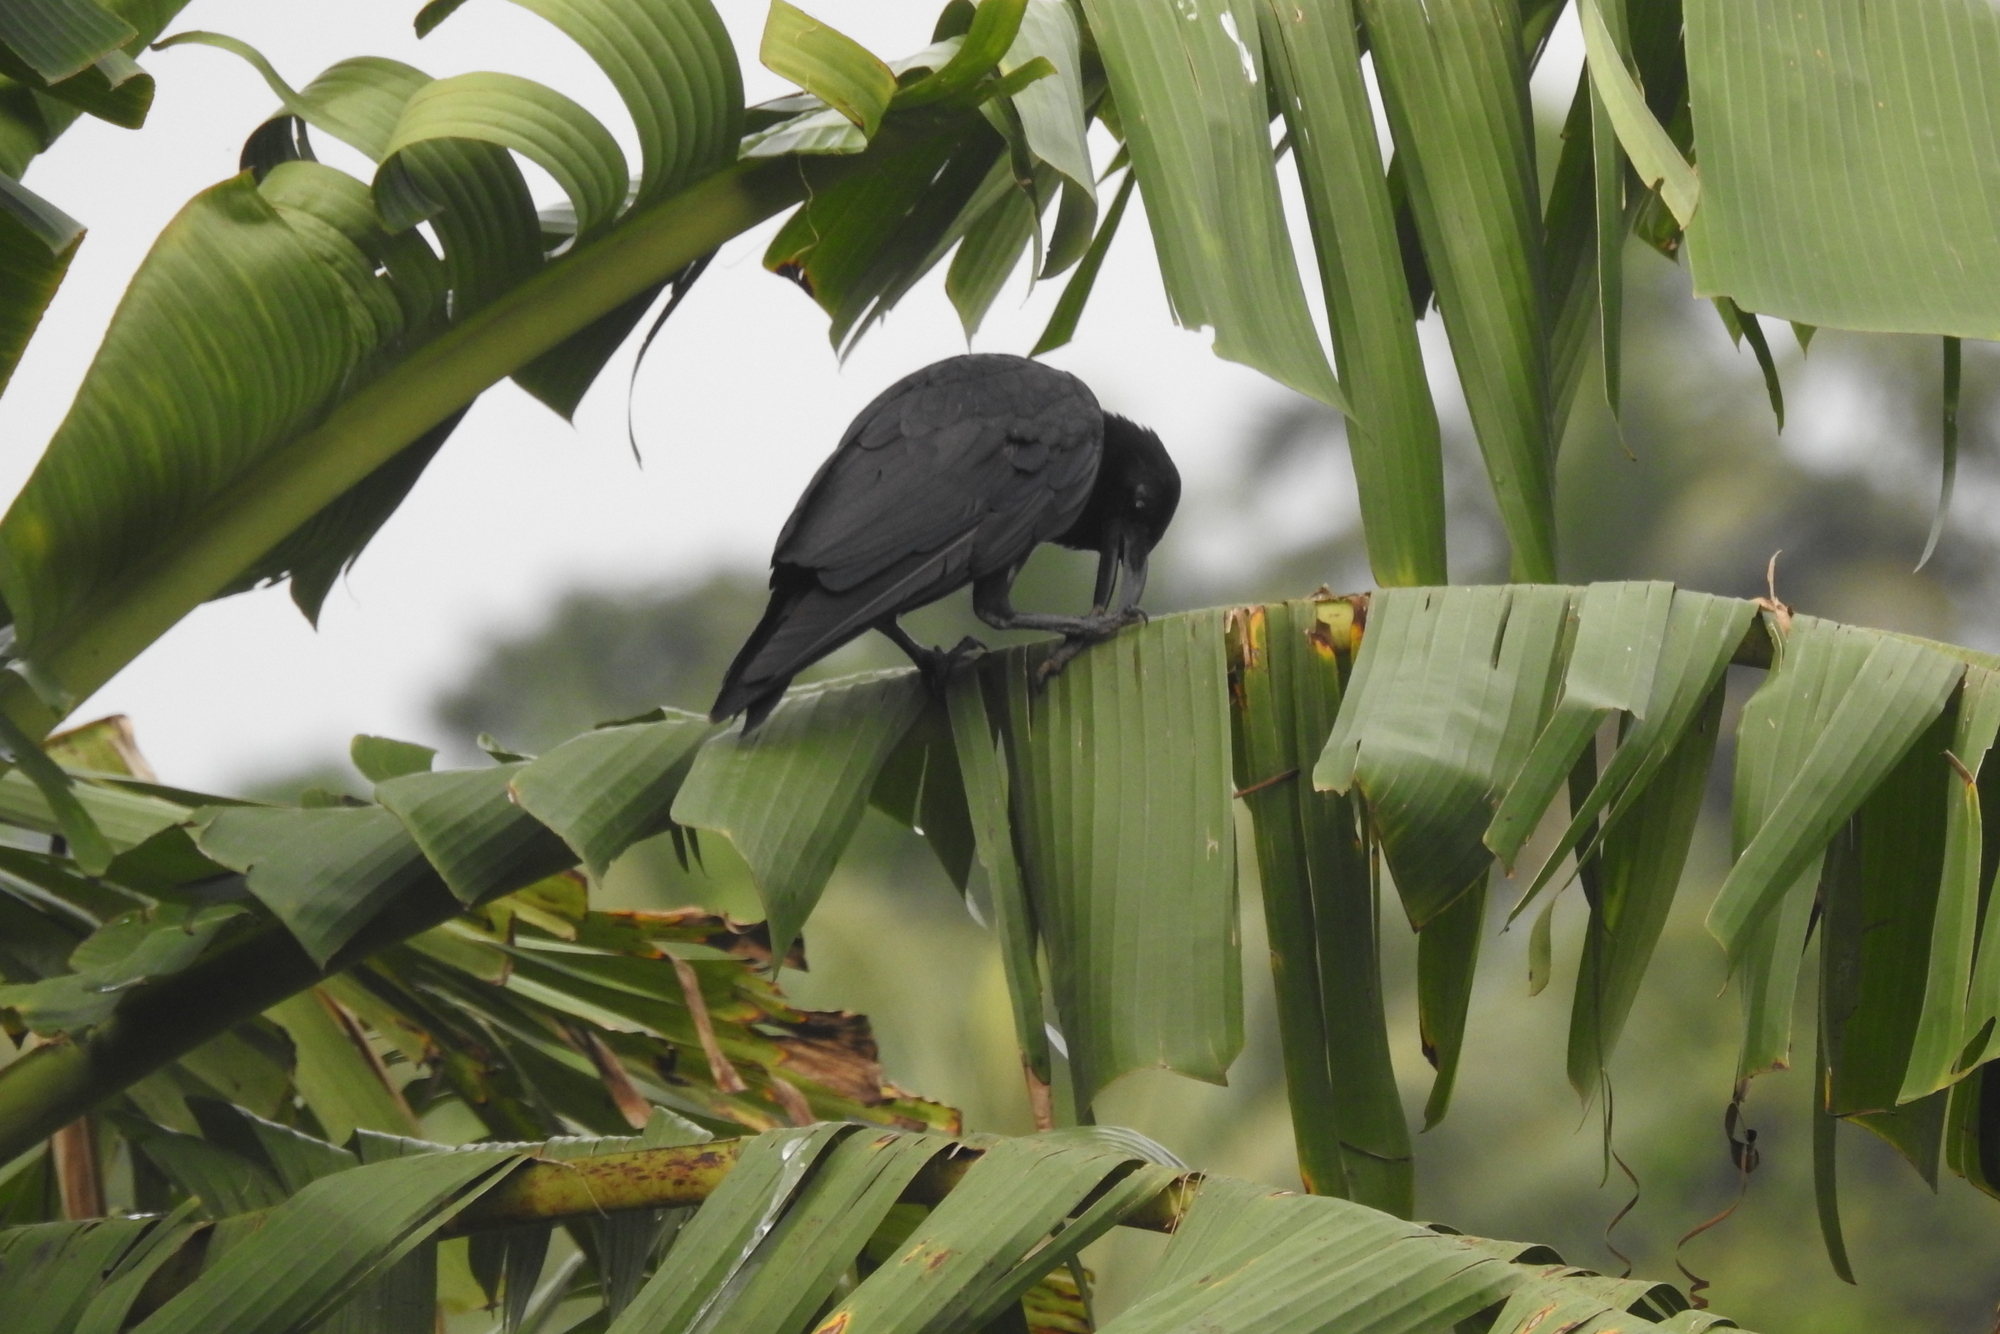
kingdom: Animalia
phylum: Chordata
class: Aves
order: Passeriformes
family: Corvidae
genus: Corvus
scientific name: Corvus macrorhynchos
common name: Large-billed crow
